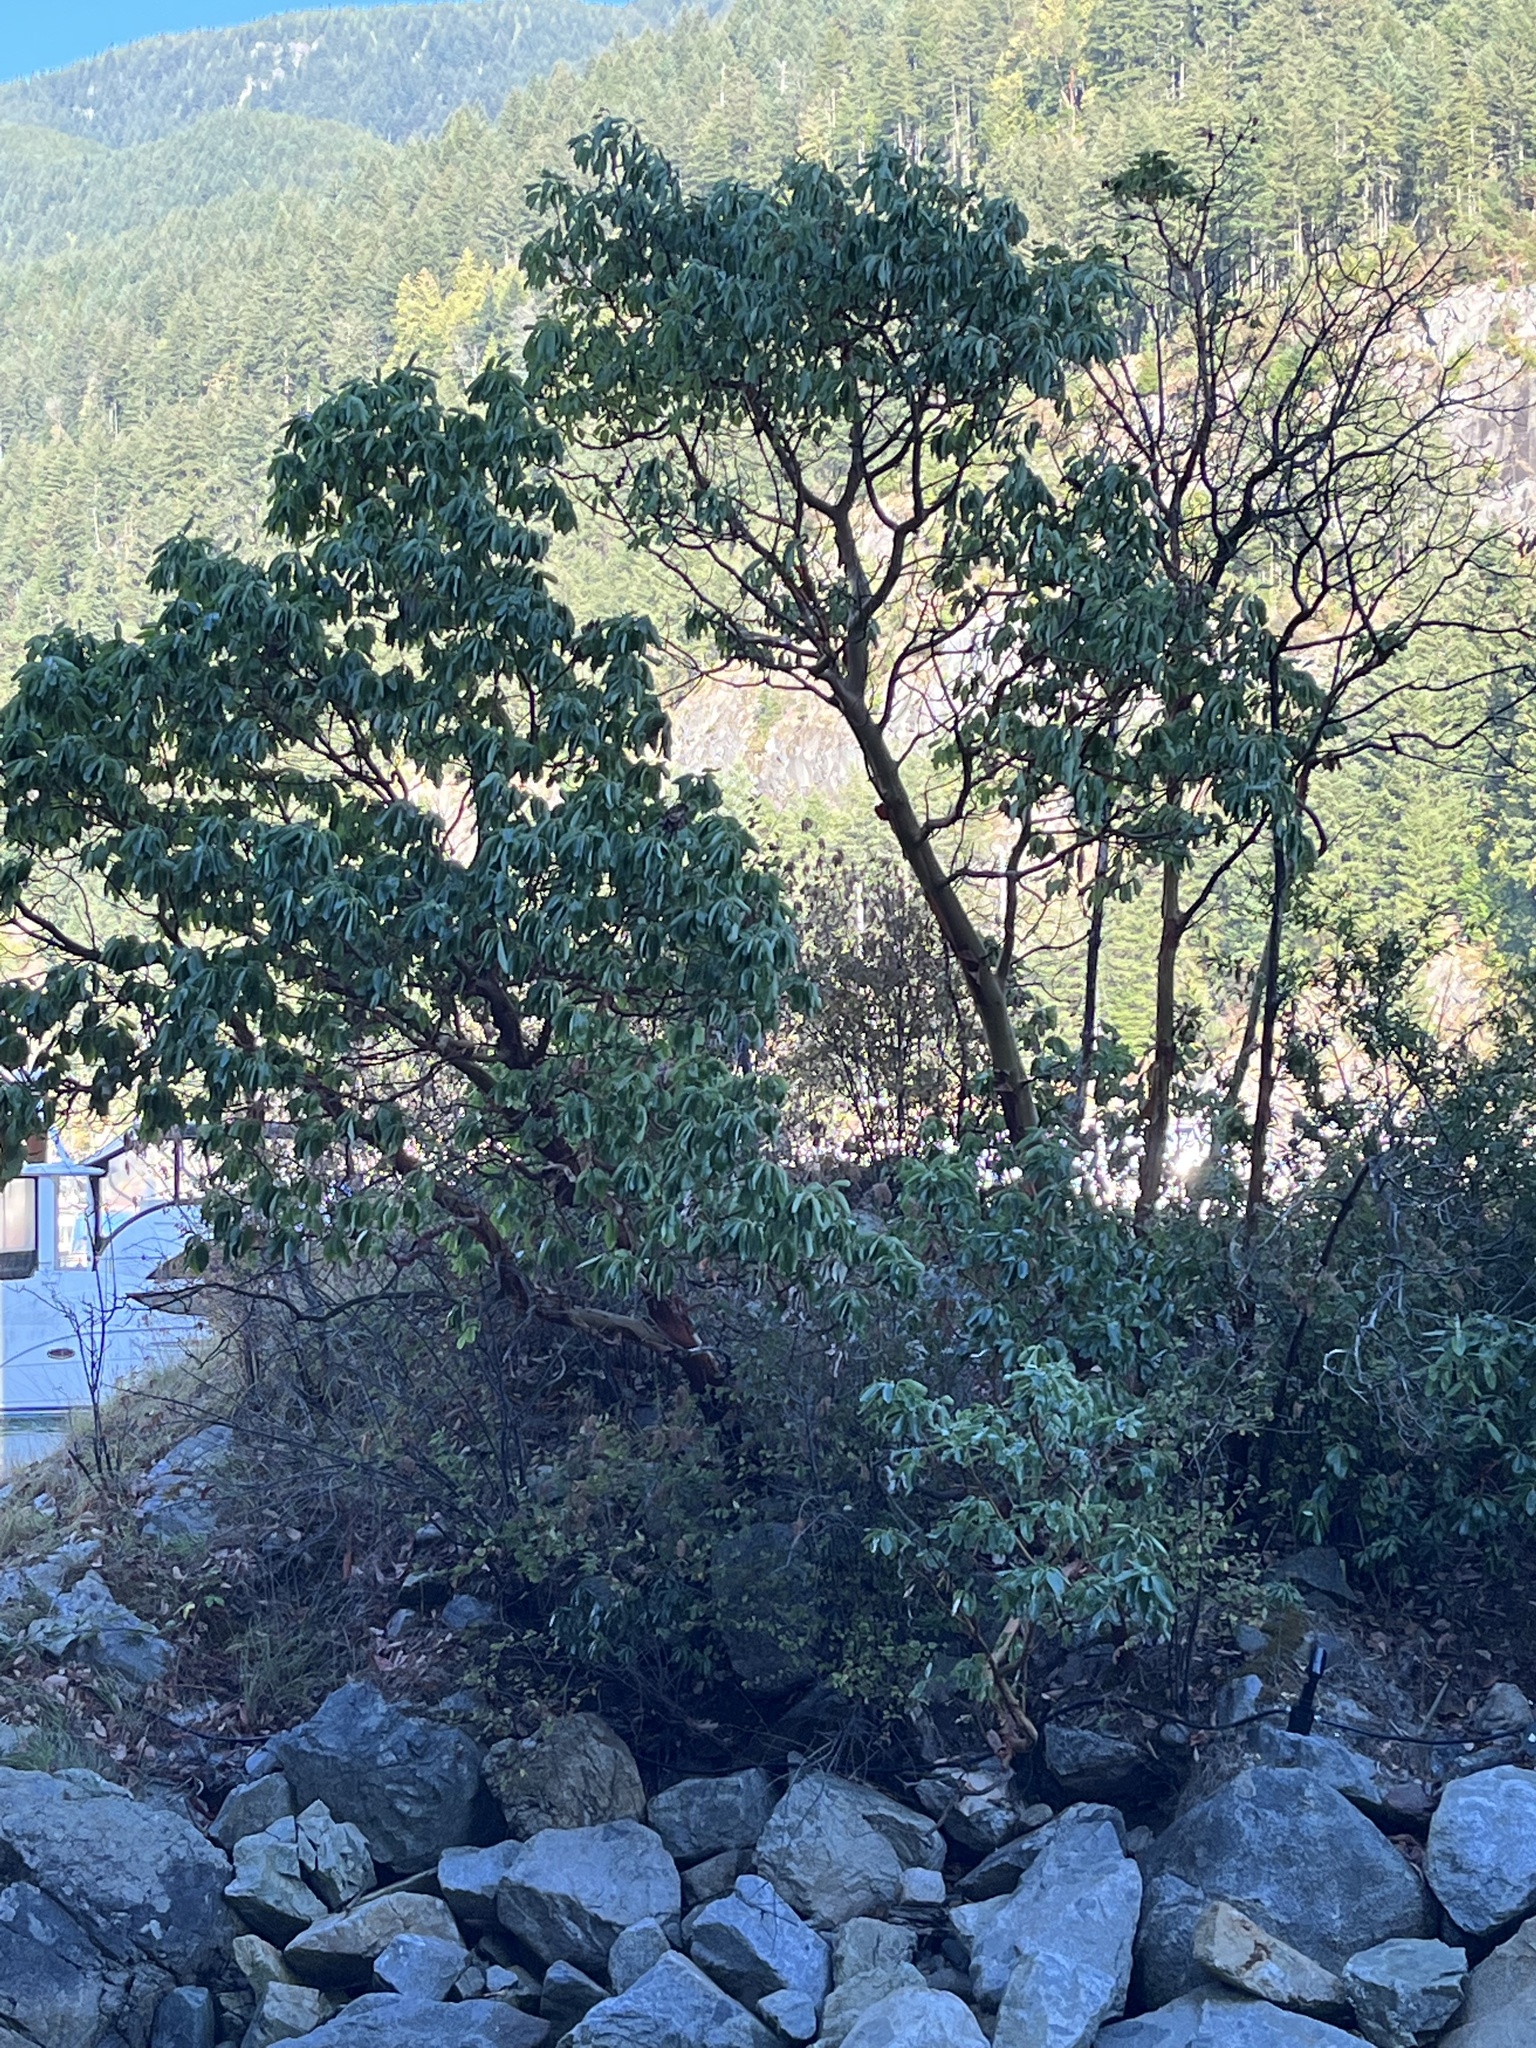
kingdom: Plantae
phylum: Tracheophyta
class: Magnoliopsida
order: Ericales
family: Ericaceae
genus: Arbutus
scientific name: Arbutus menziesii
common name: Pacific madrone
